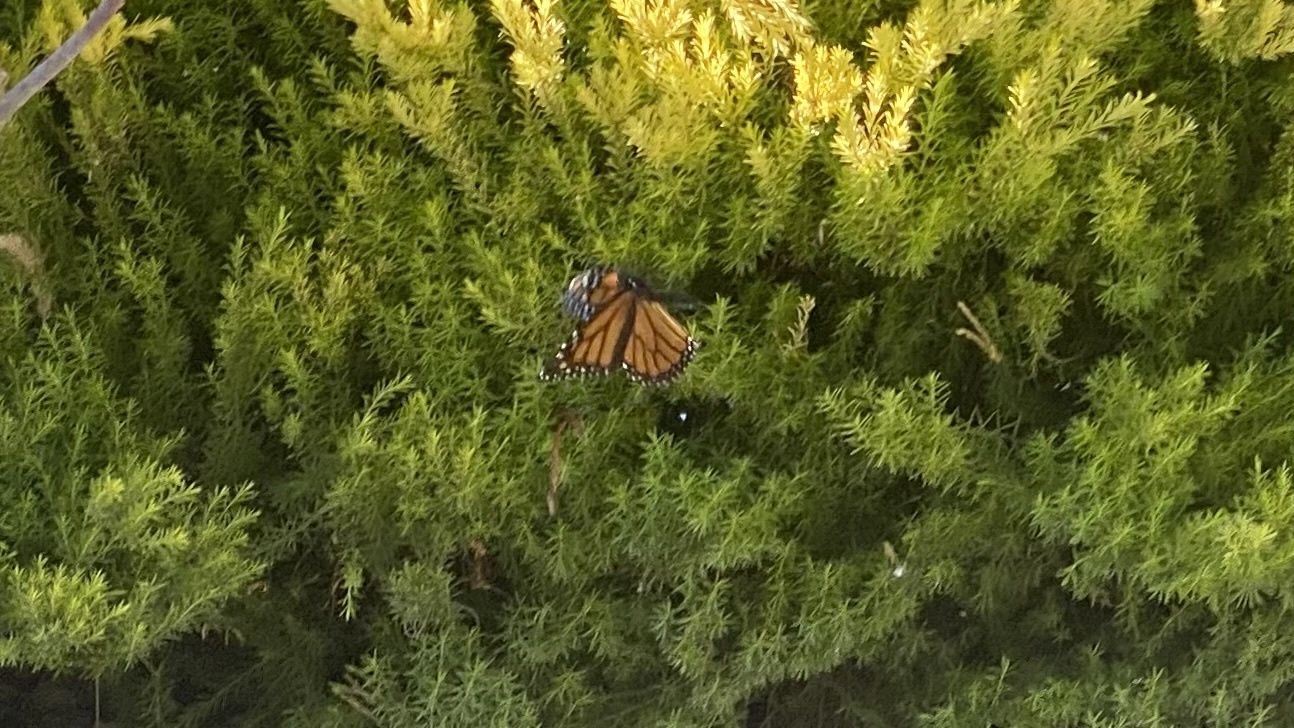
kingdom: Animalia
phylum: Arthropoda
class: Insecta
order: Lepidoptera
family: Nymphalidae
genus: Danaus
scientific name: Danaus plexippus
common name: Monarch
